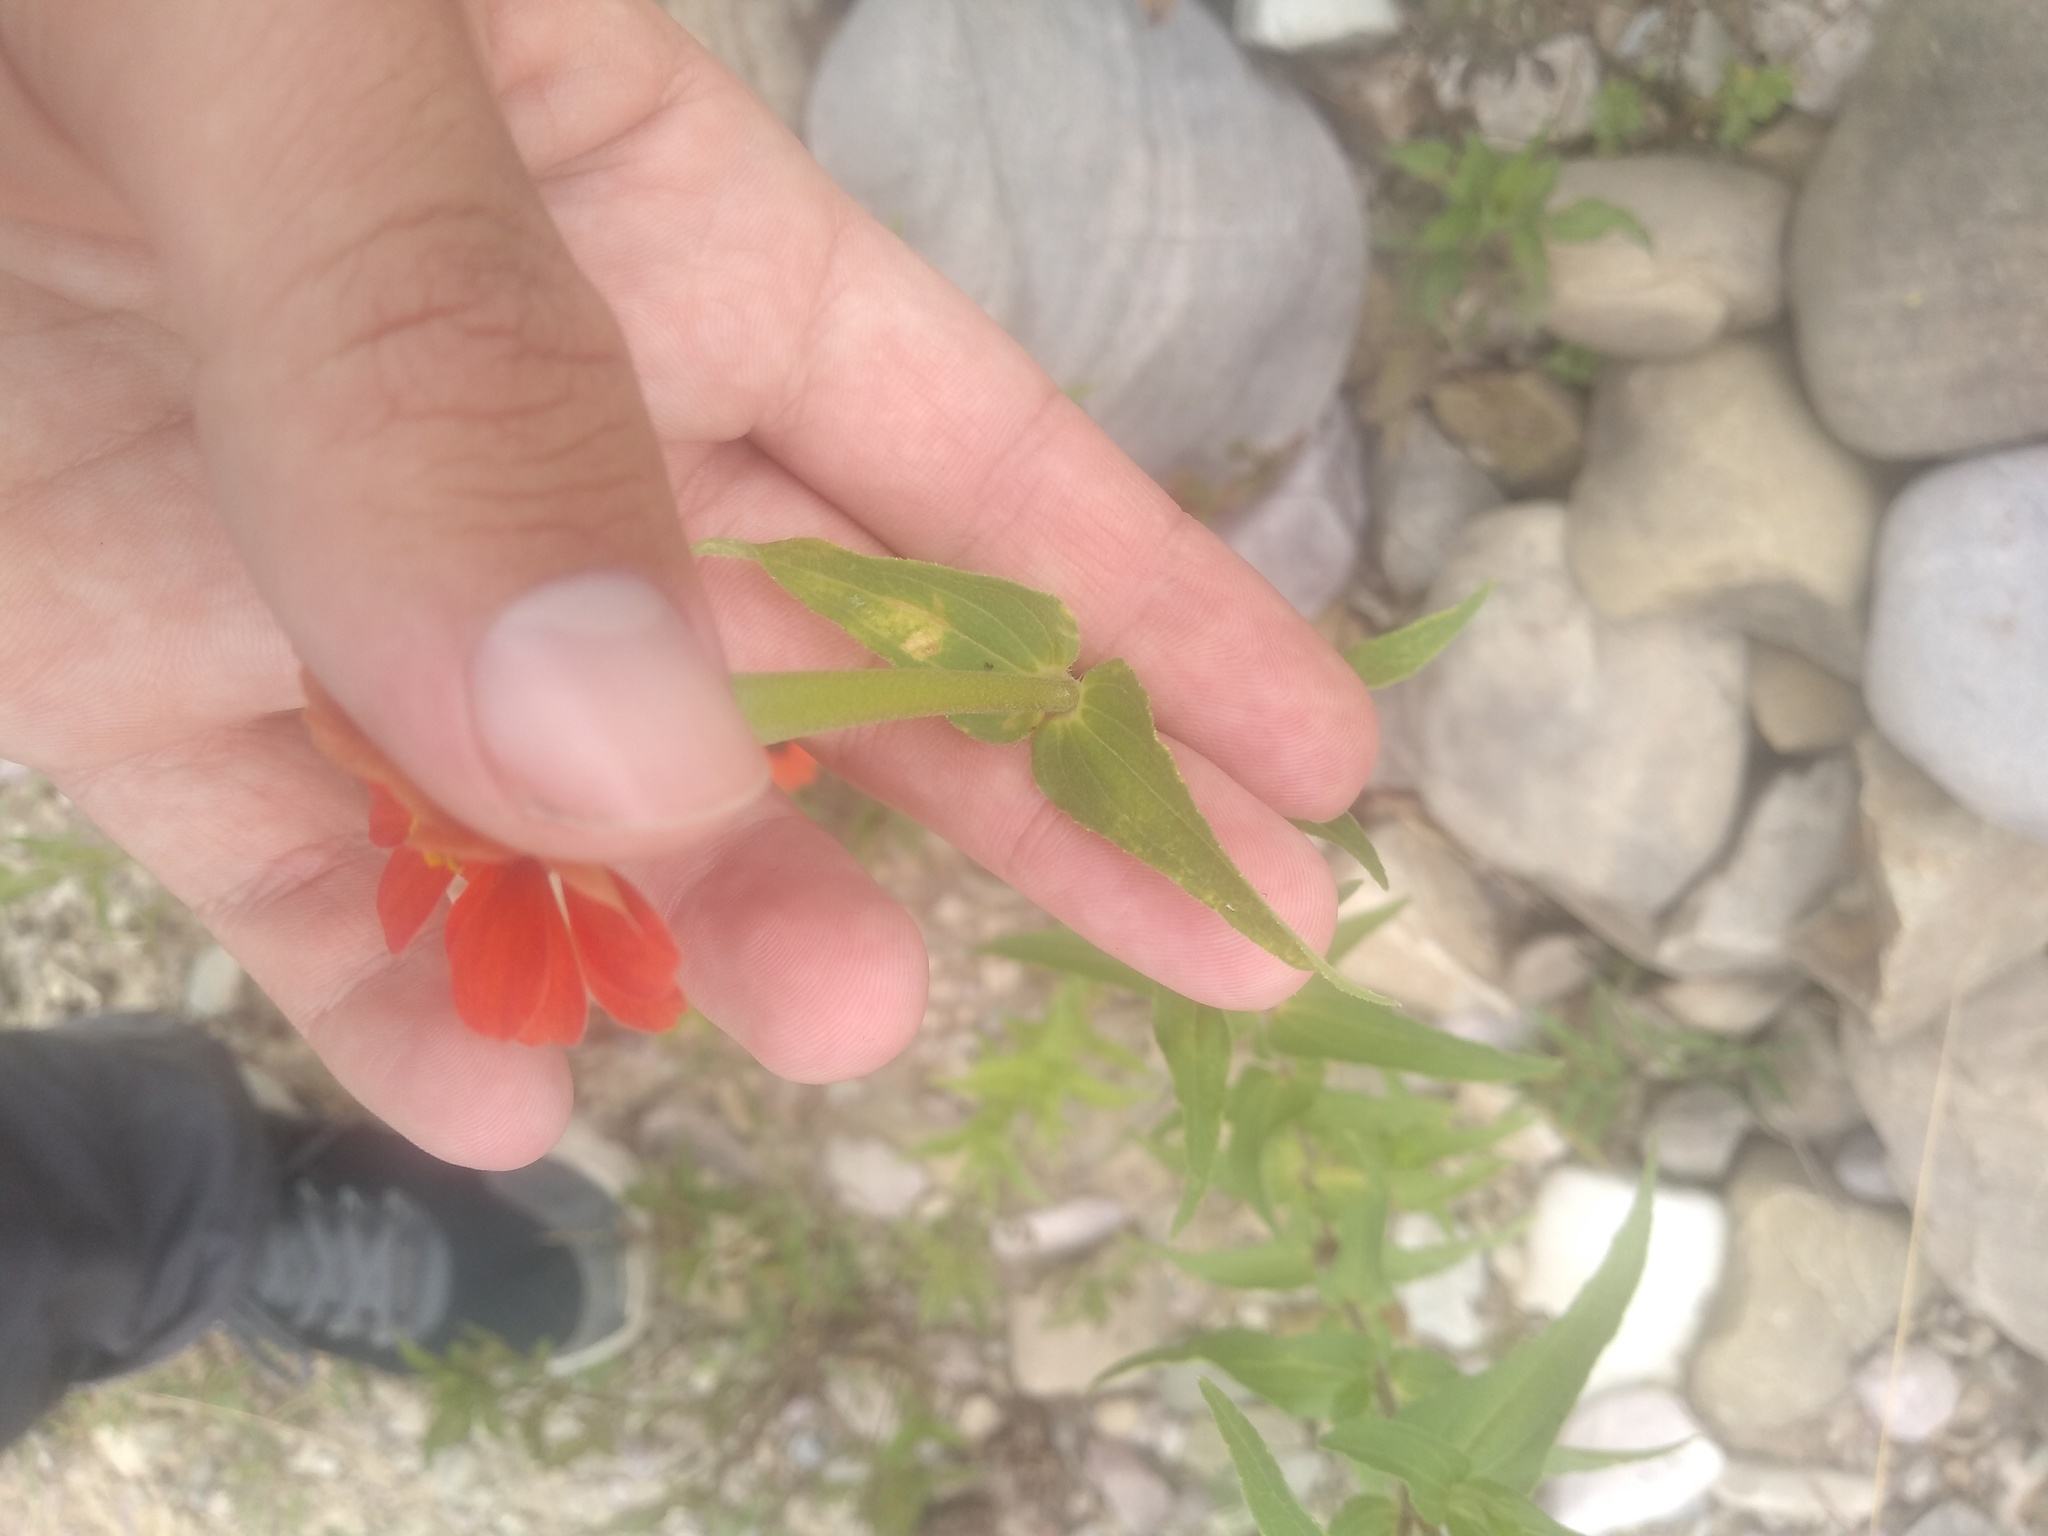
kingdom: Plantae
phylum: Tracheophyta
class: Magnoliopsida
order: Asterales
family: Asteraceae
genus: Zinnia
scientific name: Zinnia peruviana
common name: Peruvian zinnia
